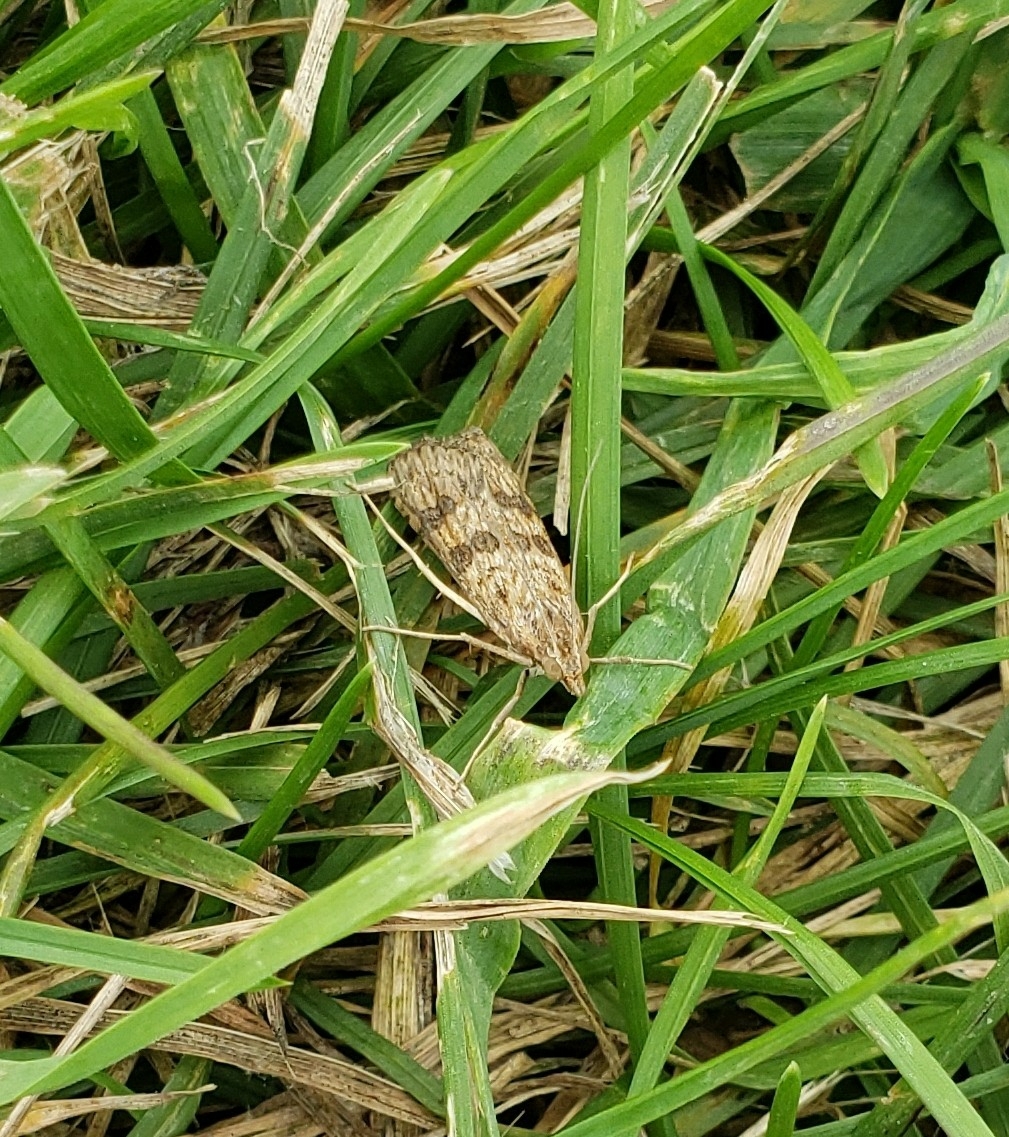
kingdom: Animalia
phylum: Arthropoda
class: Insecta
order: Lepidoptera
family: Crambidae
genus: Nomophila
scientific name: Nomophila nearctica
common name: American rush veneer
